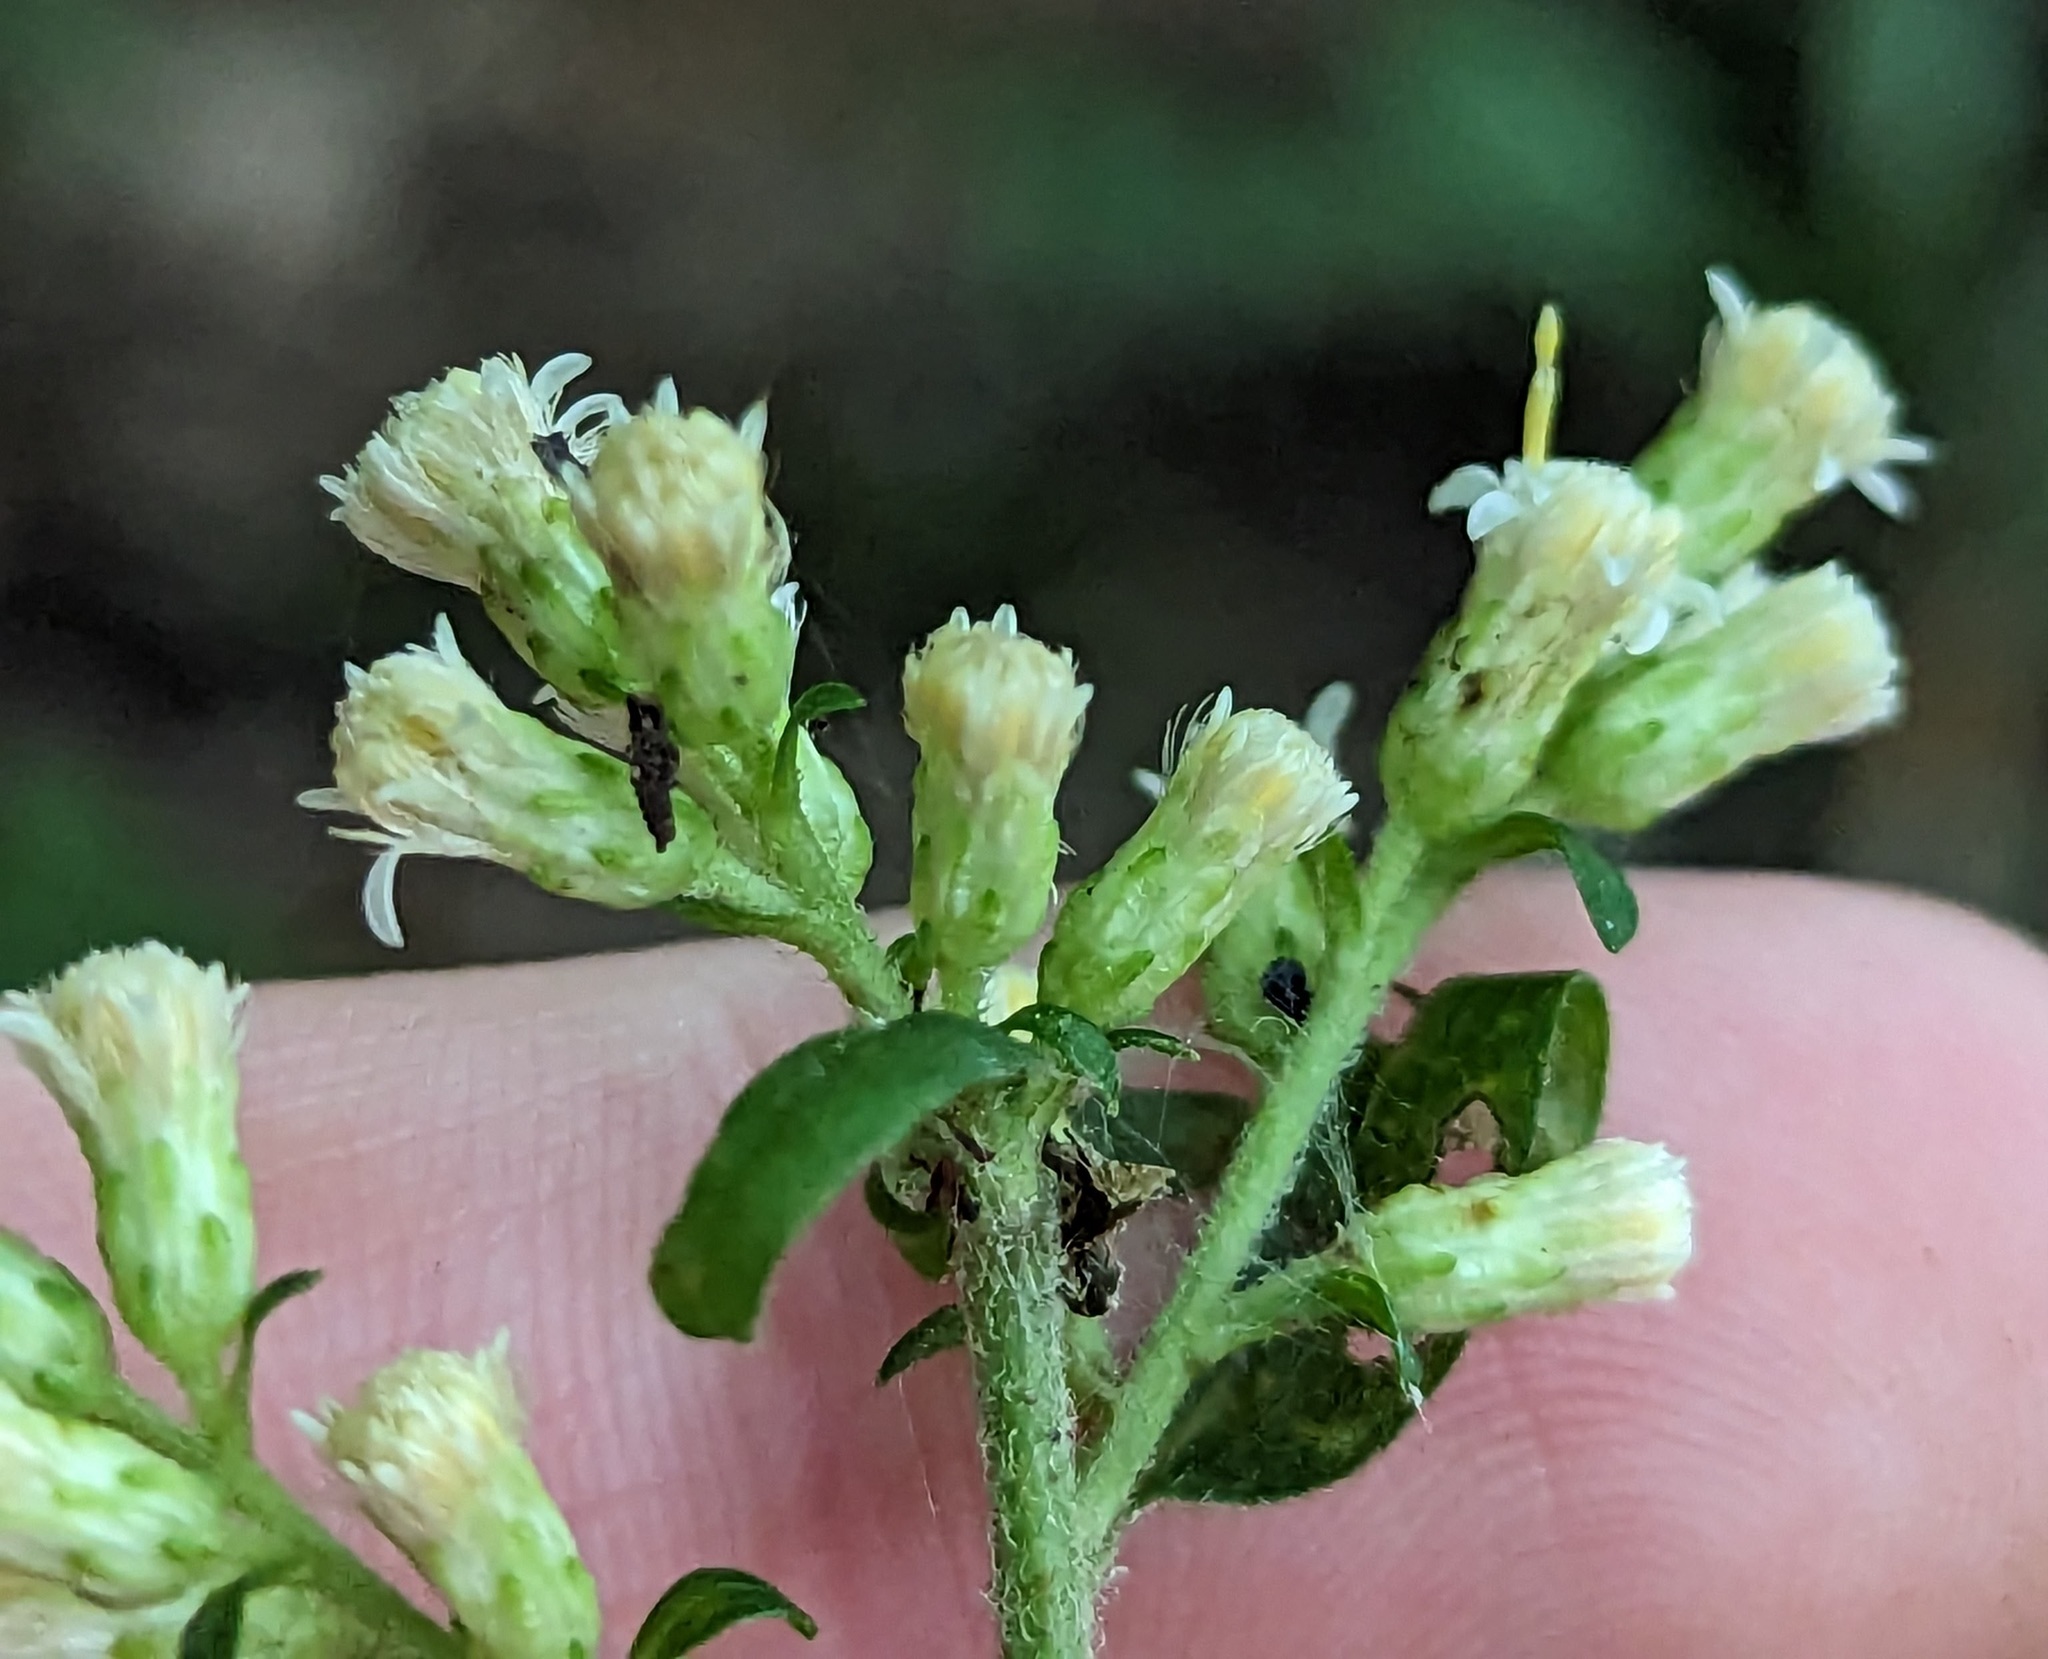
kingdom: Plantae
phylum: Tracheophyta
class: Magnoliopsida
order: Asterales
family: Asteraceae
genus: Solidago
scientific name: Solidago bicolor
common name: Silverrod
